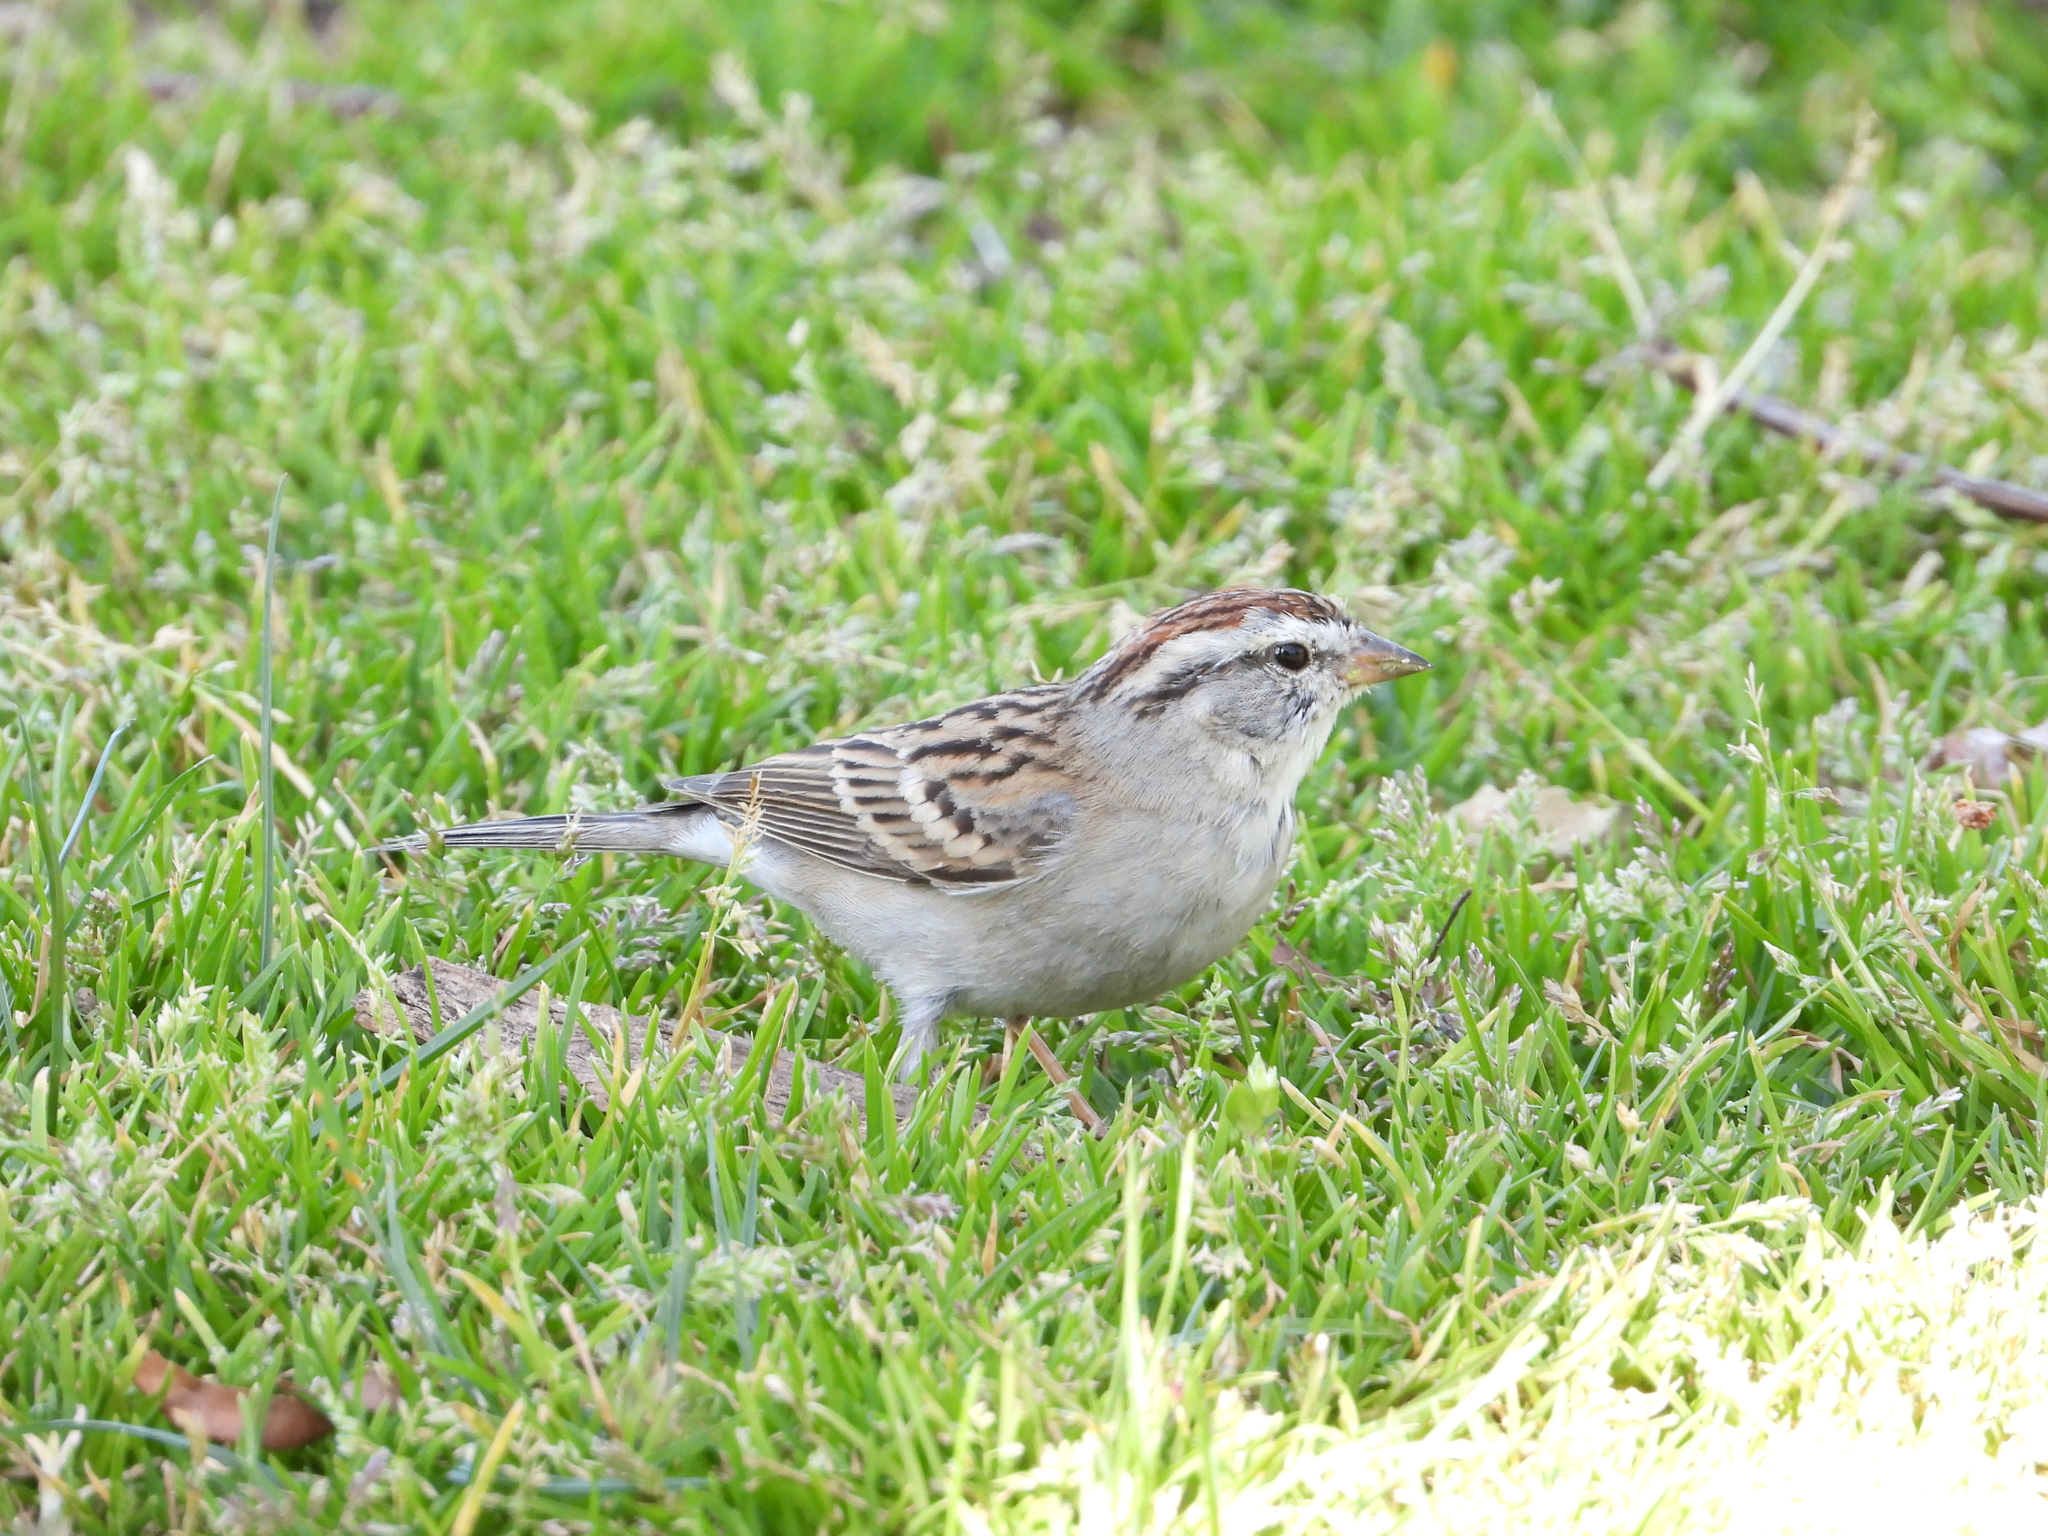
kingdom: Animalia
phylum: Chordata
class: Aves
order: Passeriformes
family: Passerellidae
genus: Spizella
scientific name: Spizella passerina
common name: Chipping sparrow
